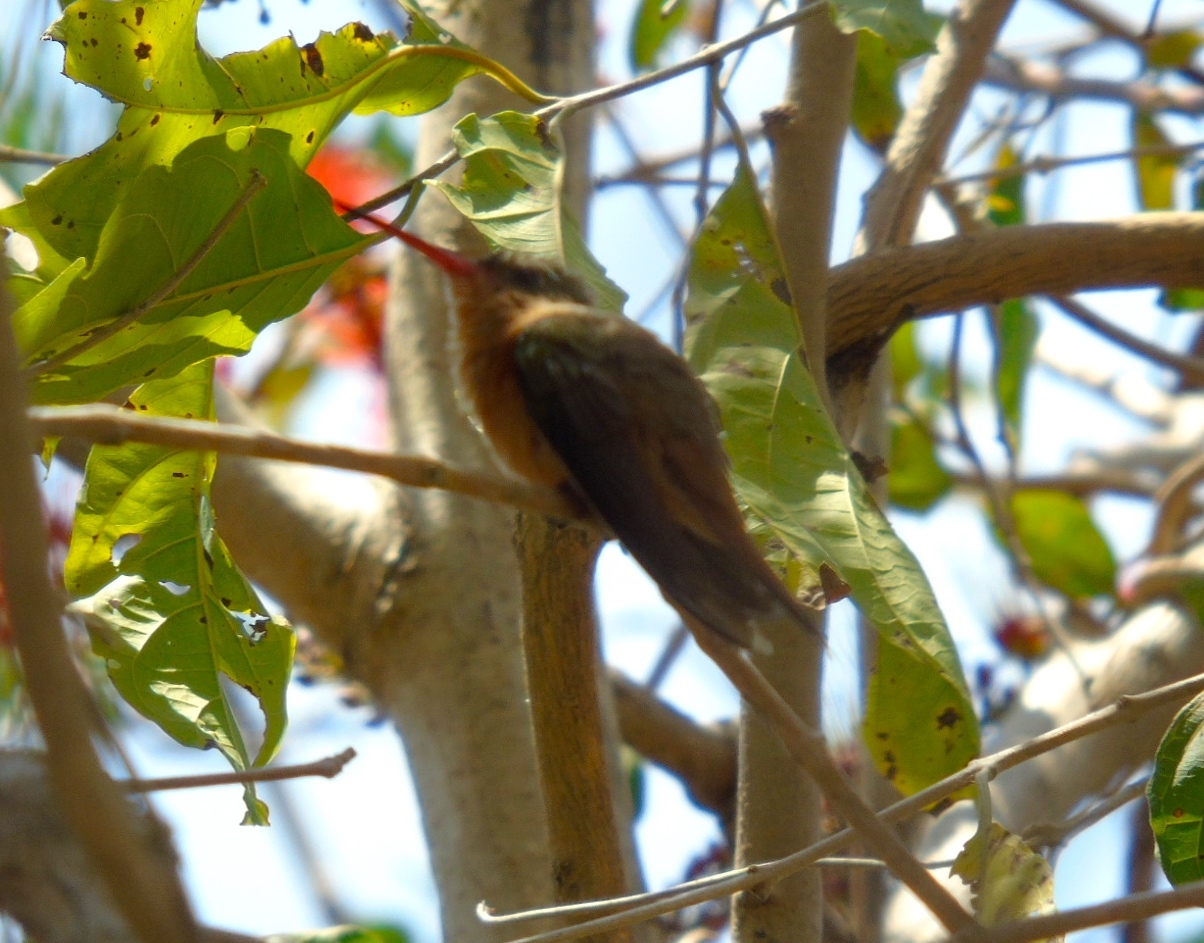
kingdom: Animalia
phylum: Chordata
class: Aves
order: Apodiformes
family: Trochilidae
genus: Amazilia
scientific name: Amazilia rutila
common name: Cinnamon hummingbird
